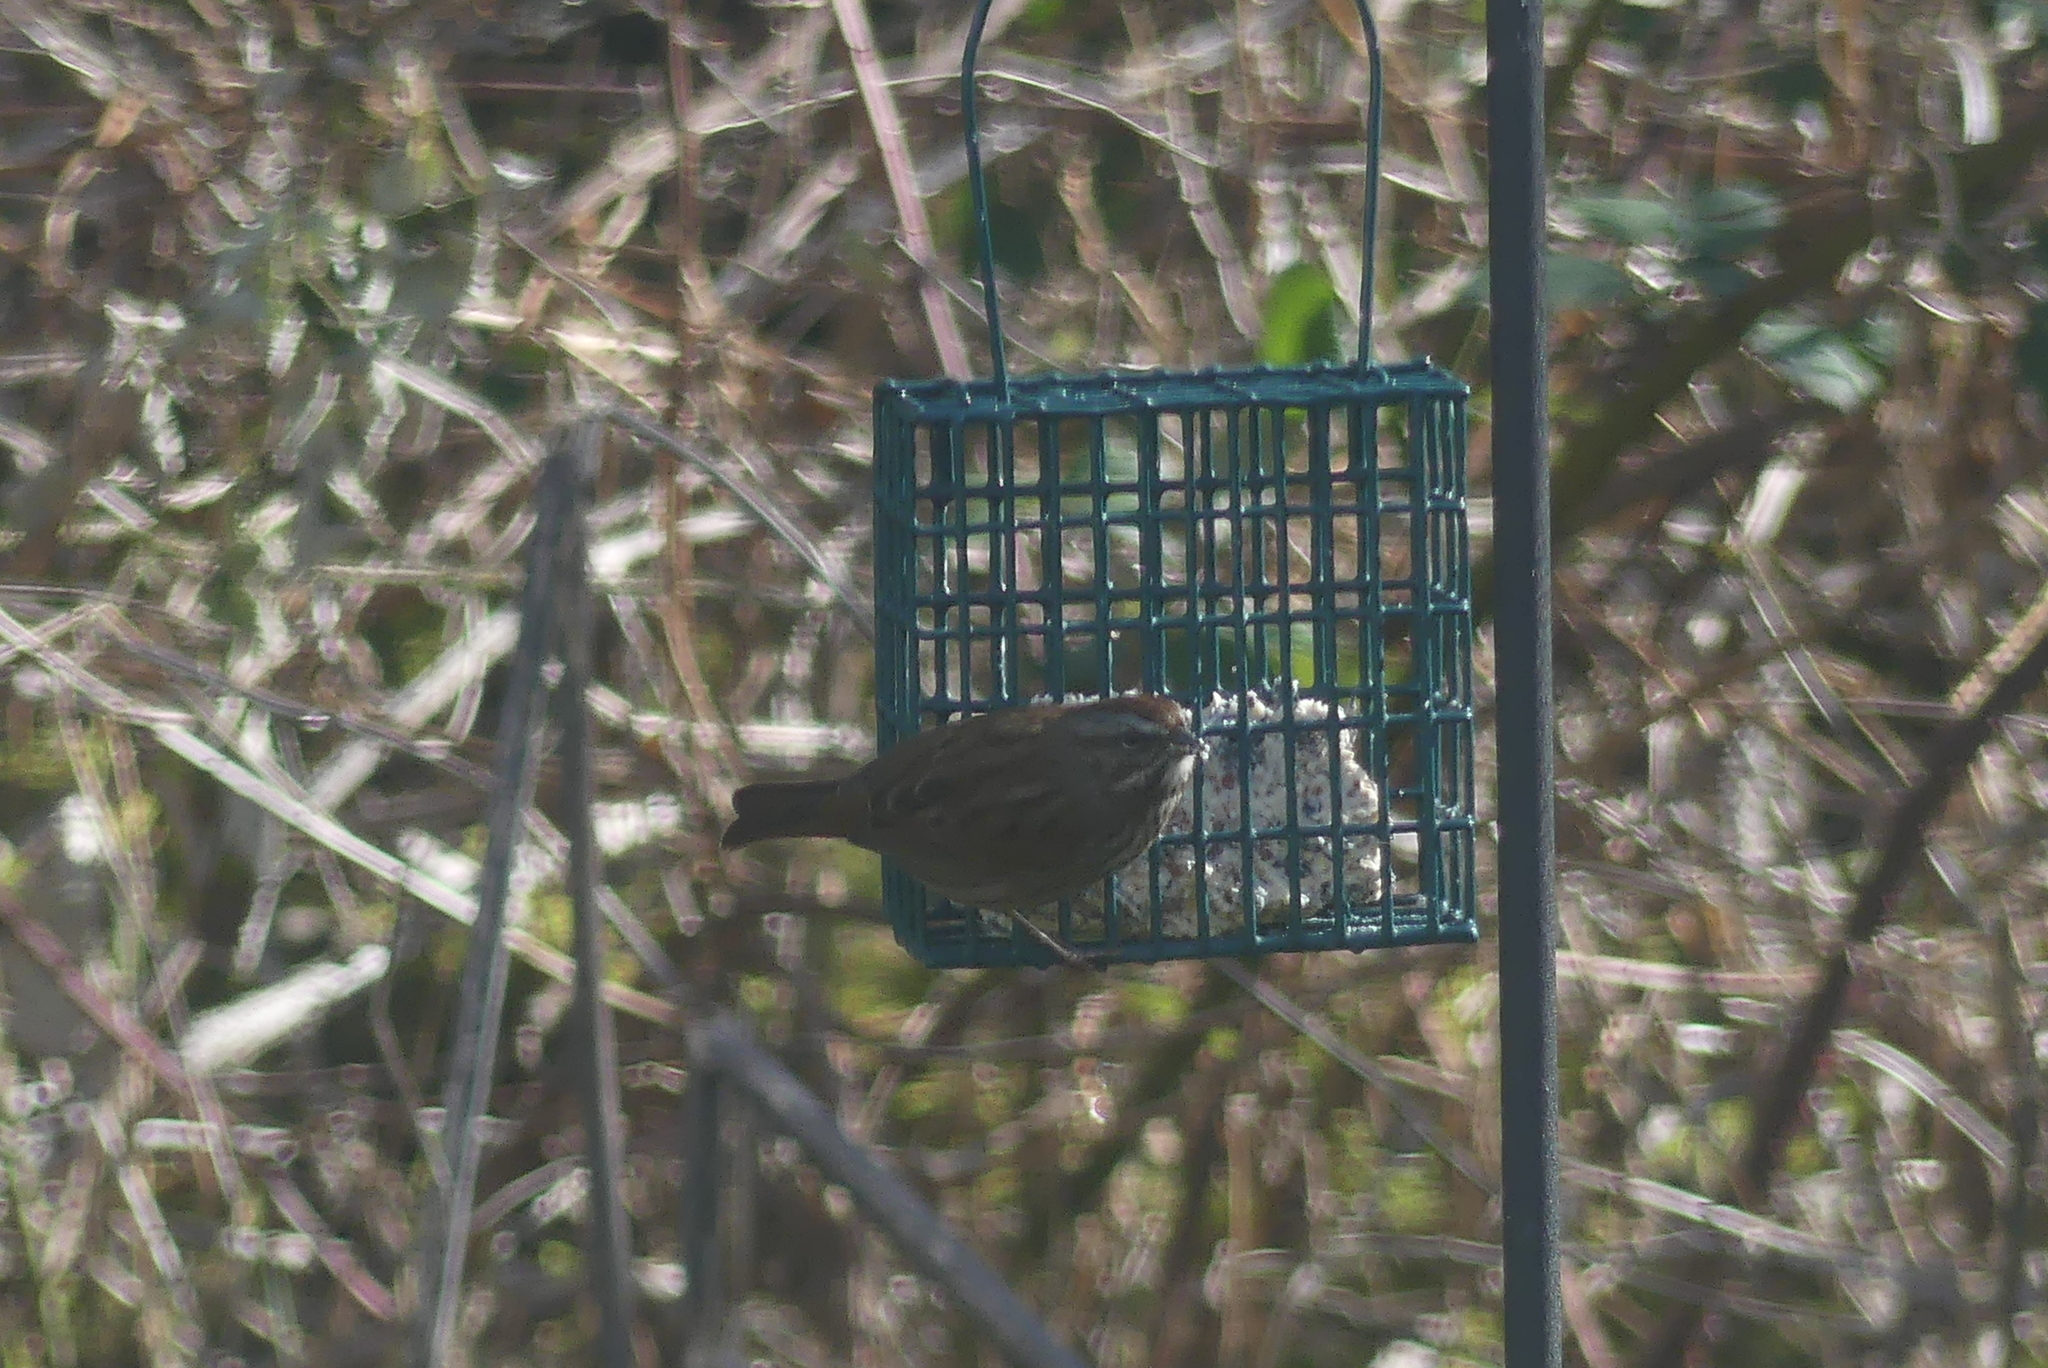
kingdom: Animalia
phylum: Chordata
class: Aves
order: Passeriformes
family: Passerellidae
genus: Melospiza
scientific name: Melospiza melodia
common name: Song sparrow
